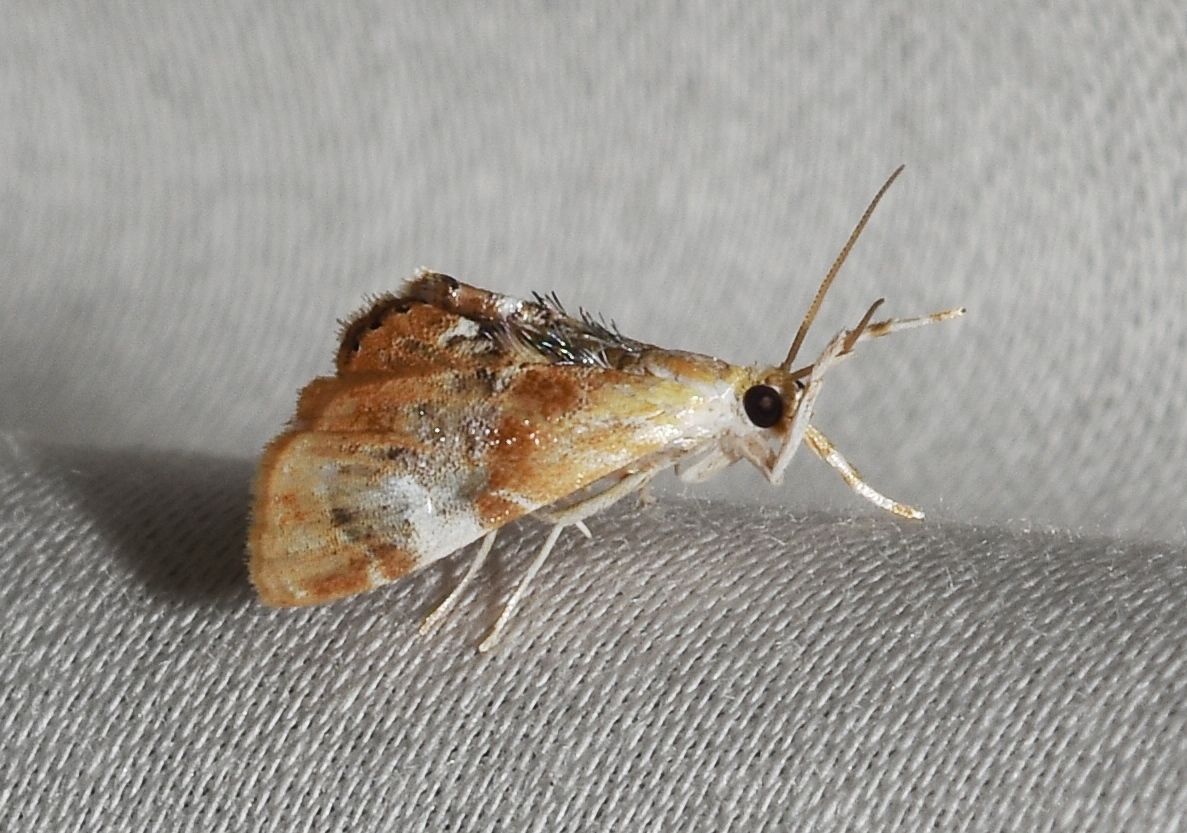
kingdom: Animalia
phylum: Arthropoda
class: Insecta
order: Lepidoptera
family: Crambidae
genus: Dicymolomia
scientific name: Dicymolomia julianalis
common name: Julia's dicymolomia moth
